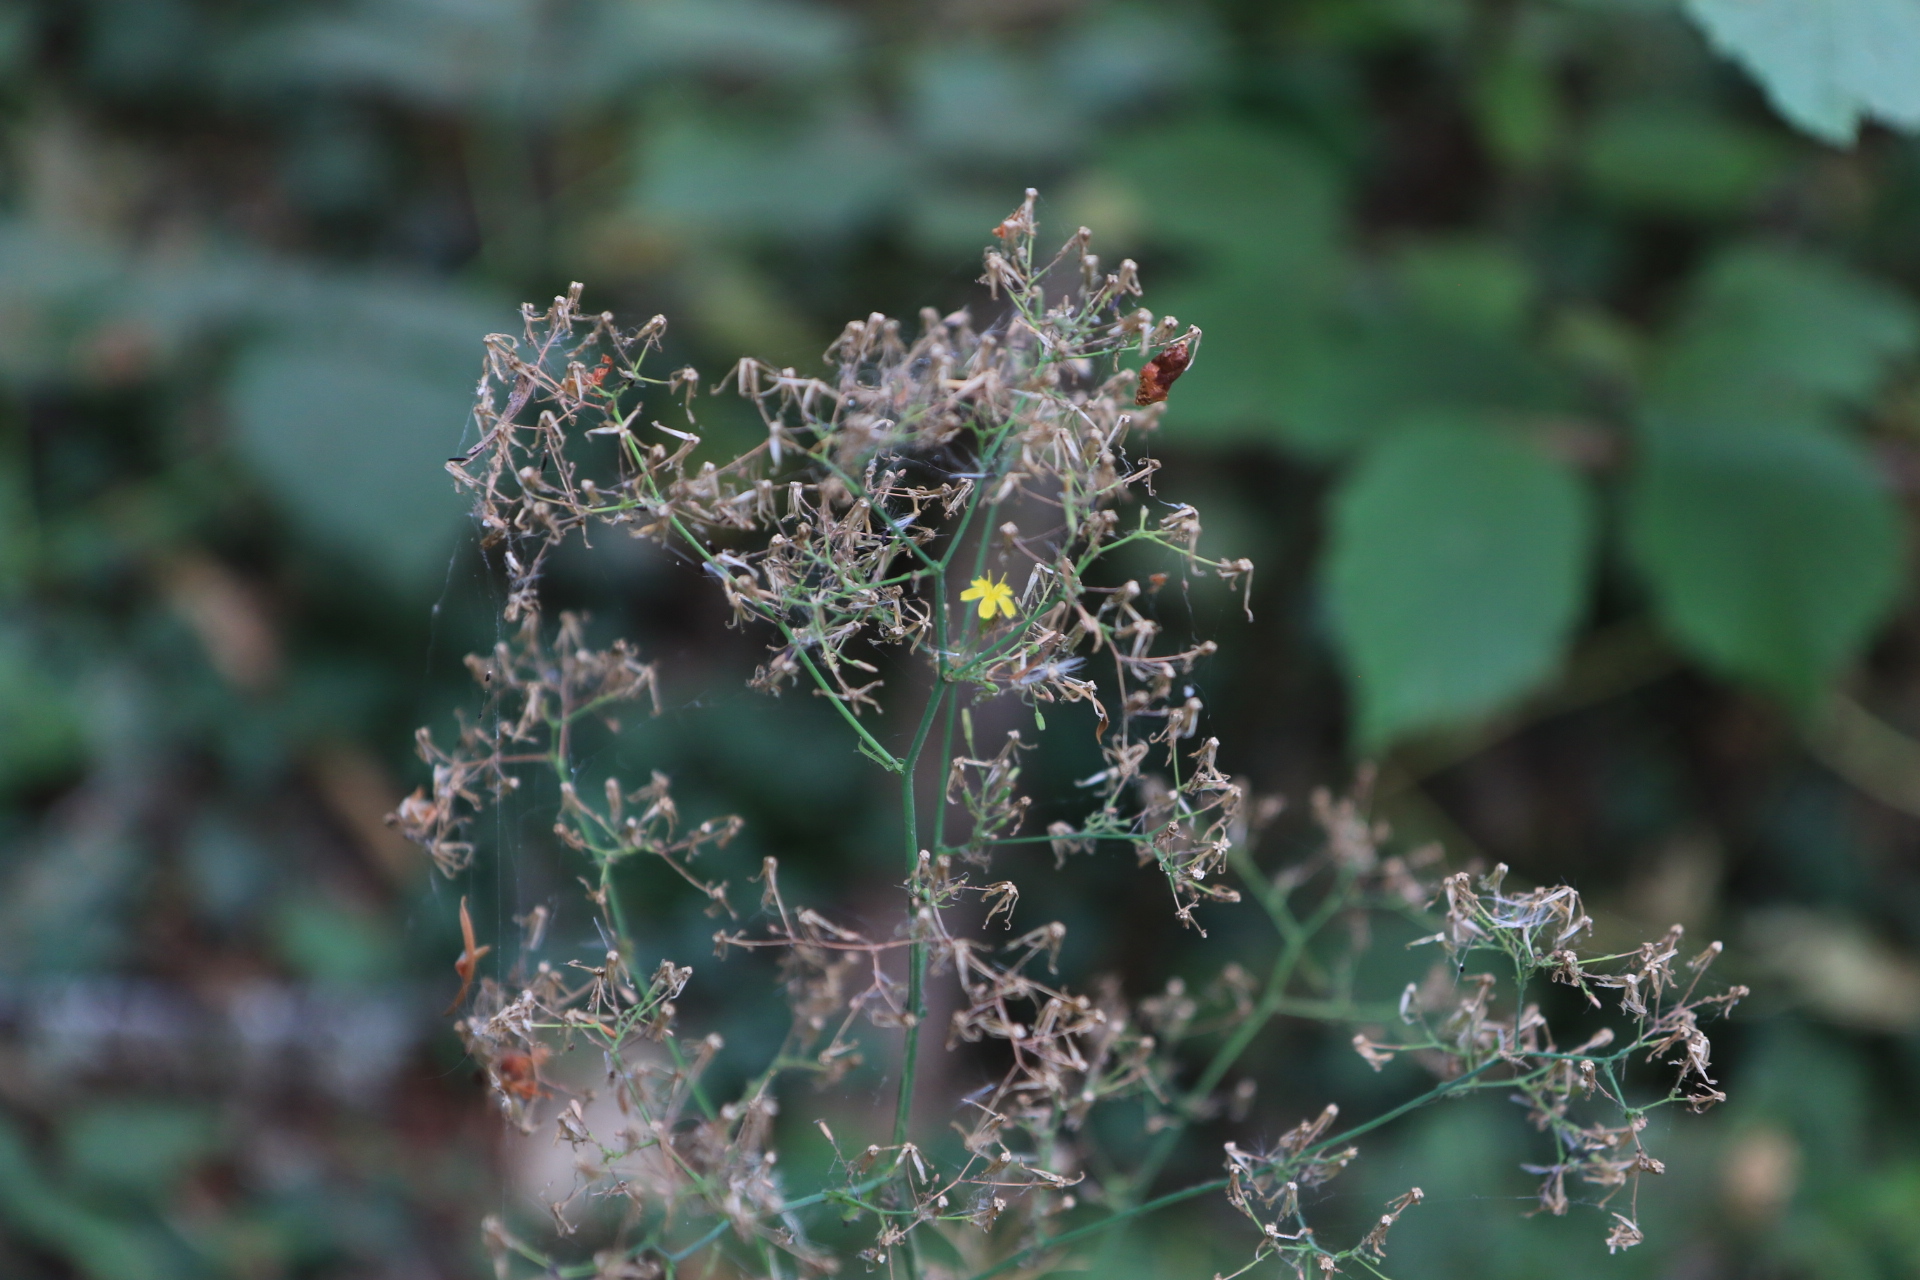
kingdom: Plantae
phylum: Tracheophyta
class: Magnoliopsida
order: Asterales
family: Asteraceae
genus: Mycelis
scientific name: Mycelis muralis
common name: Wall lettuce
